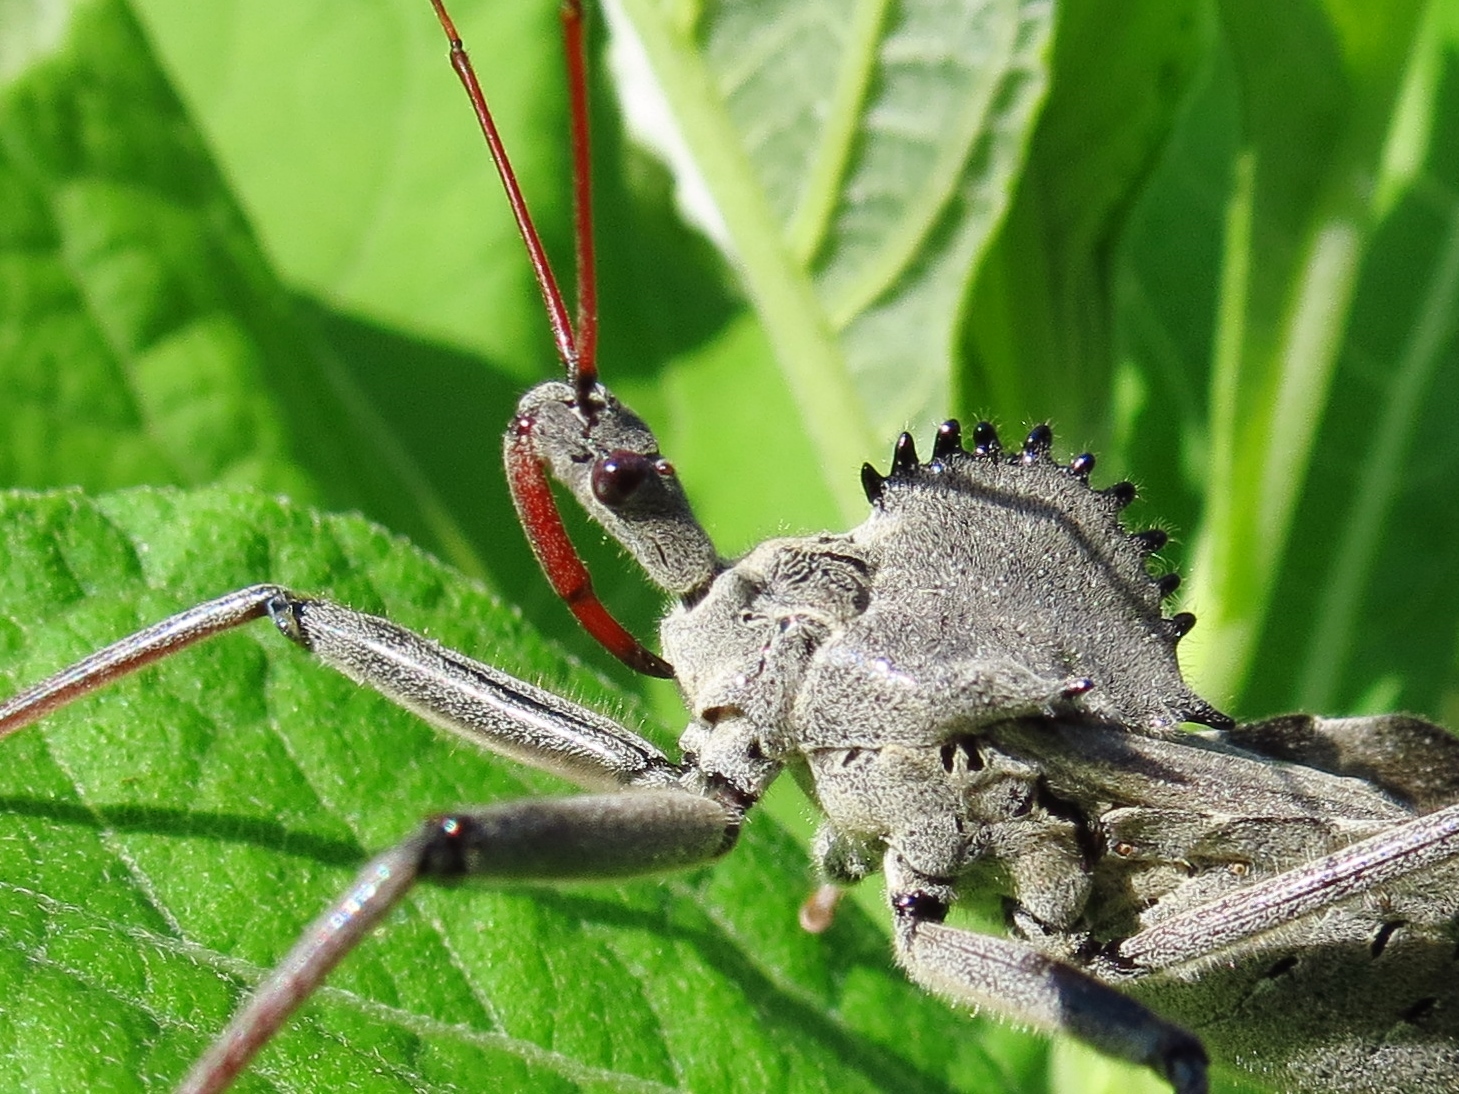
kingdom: Animalia
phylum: Arthropoda
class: Insecta
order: Hemiptera
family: Reduviidae
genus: Arilus
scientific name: Arilus cristatus
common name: North american wheel bug
